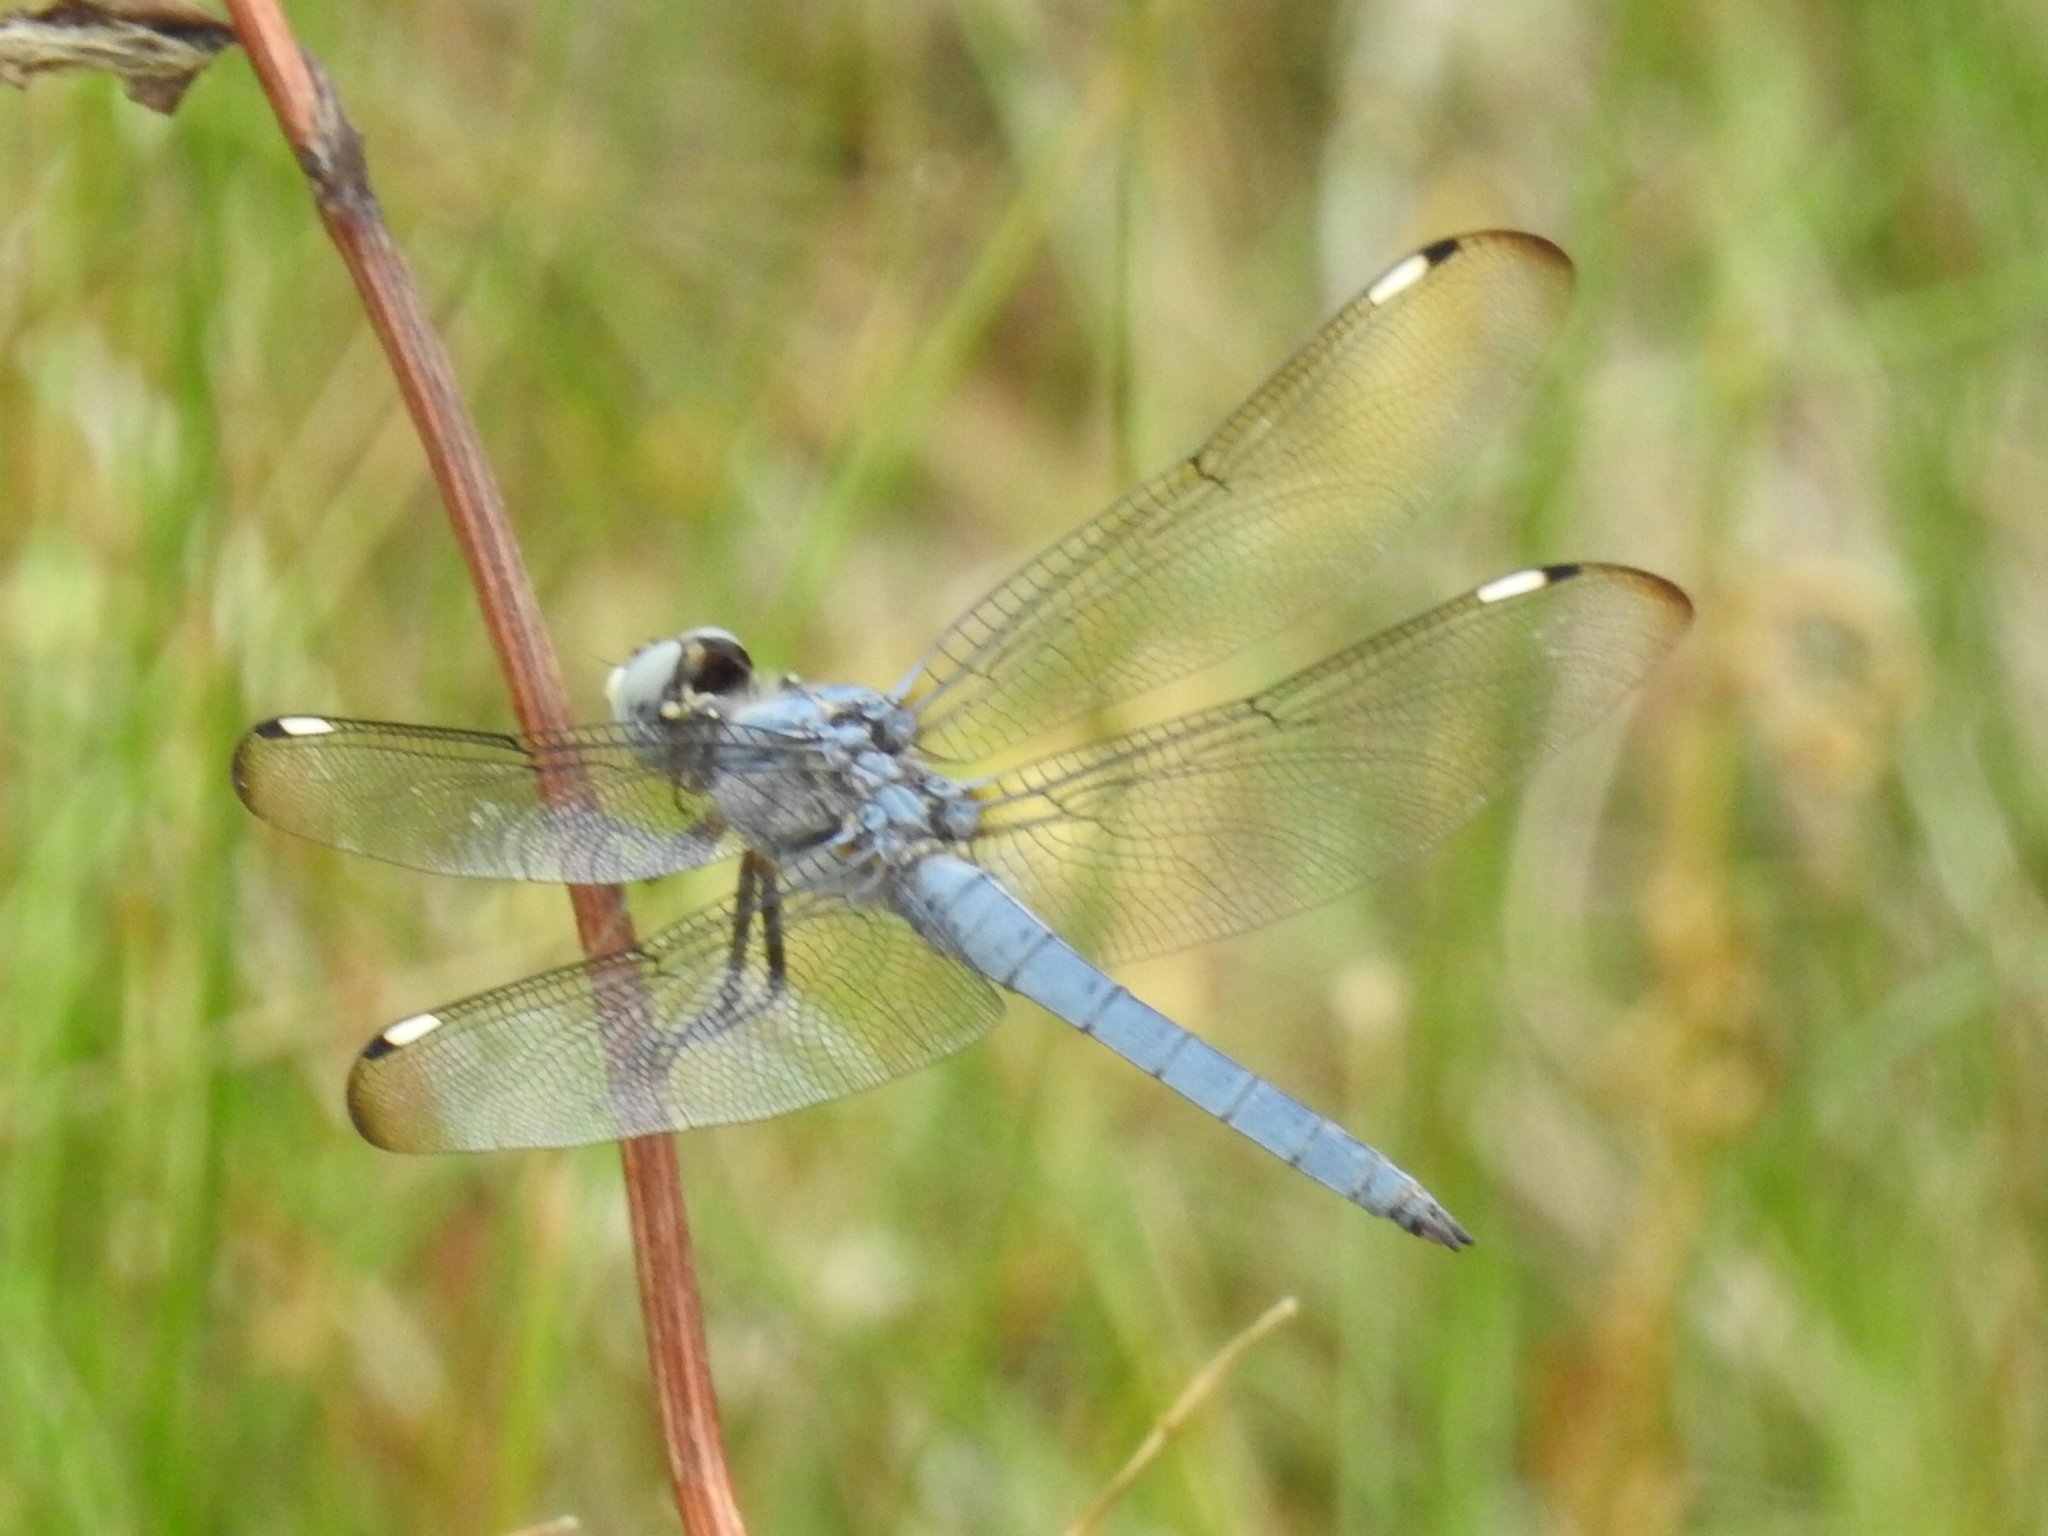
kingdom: Animalia
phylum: Arthropoda
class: Insecta
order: Odonata
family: Libellulidae
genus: Libellula
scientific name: Libellula comanche
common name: Comanche skimmer
